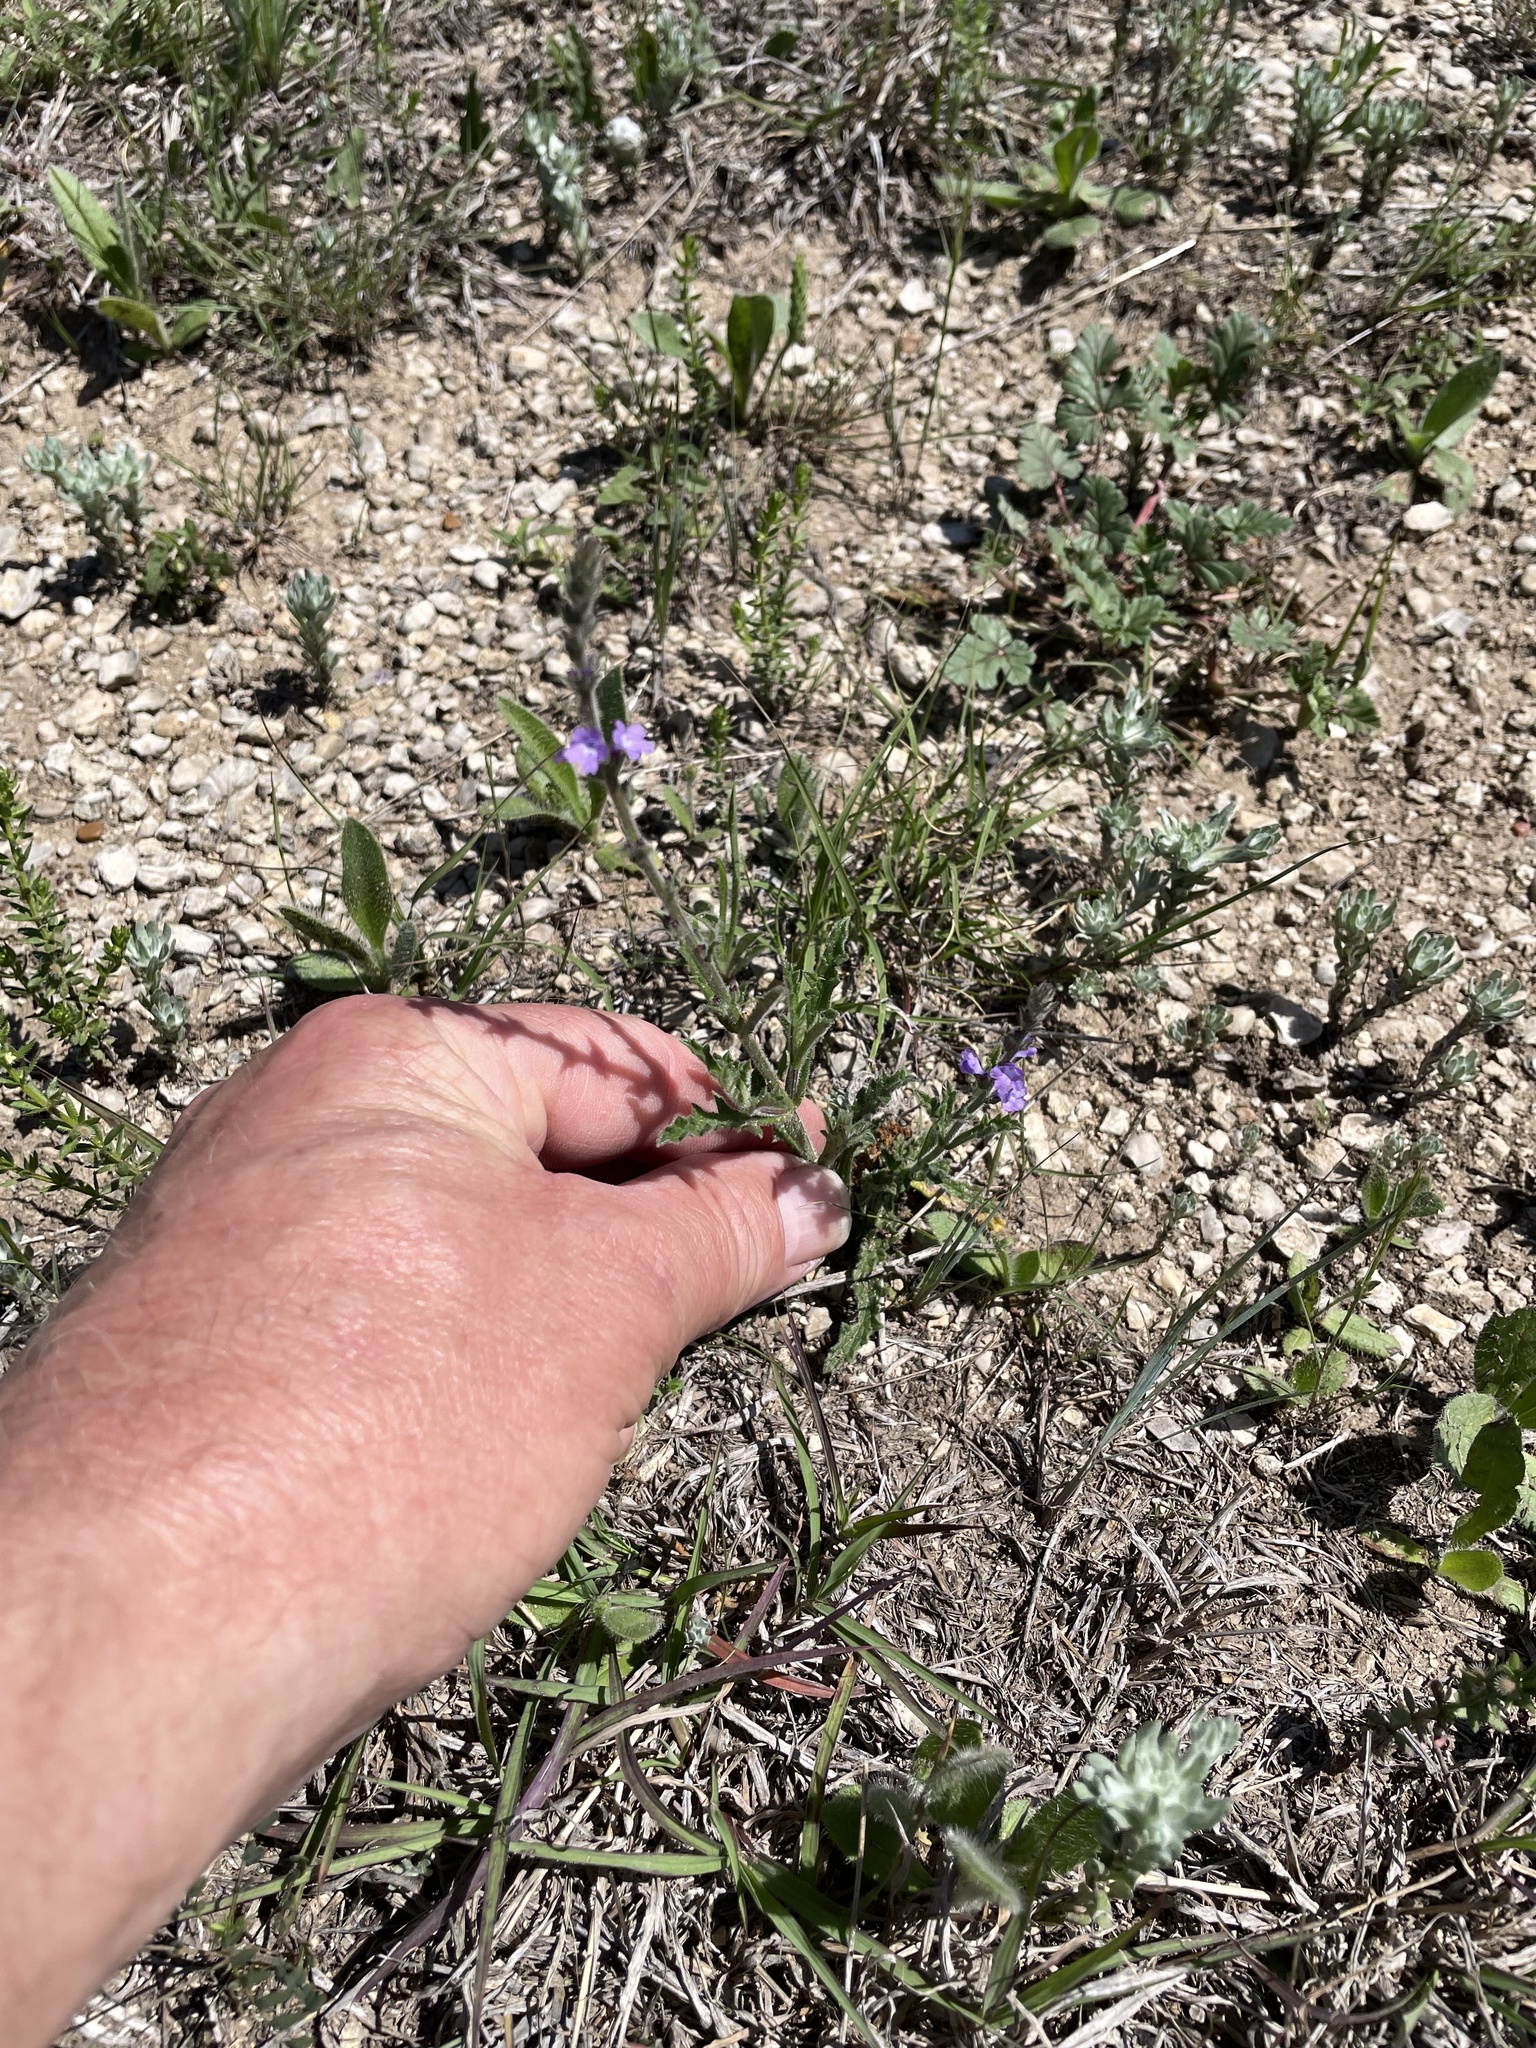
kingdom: Plantae
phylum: Tracheophyta
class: Magnoliopsida
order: Lamiales
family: Verbenaceae
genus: Verbena
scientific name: Verbena canescens
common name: Gray vervain
